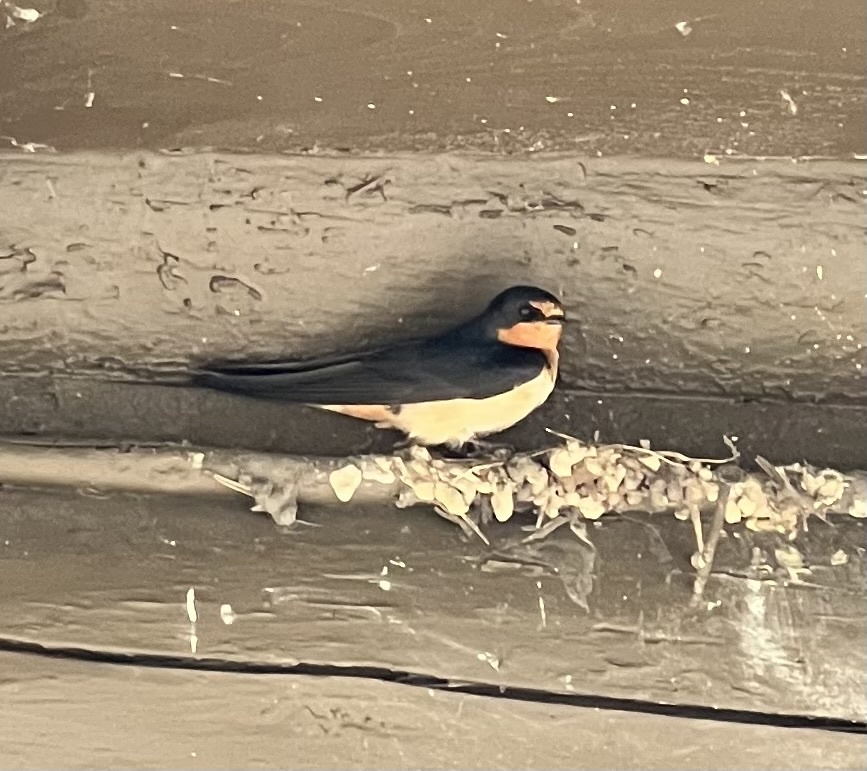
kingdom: Animalia
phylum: Chordata
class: Aves
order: Passeriformes
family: Hirundinidae
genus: Hirundo
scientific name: Hirundo rustica
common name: Barn swallow
